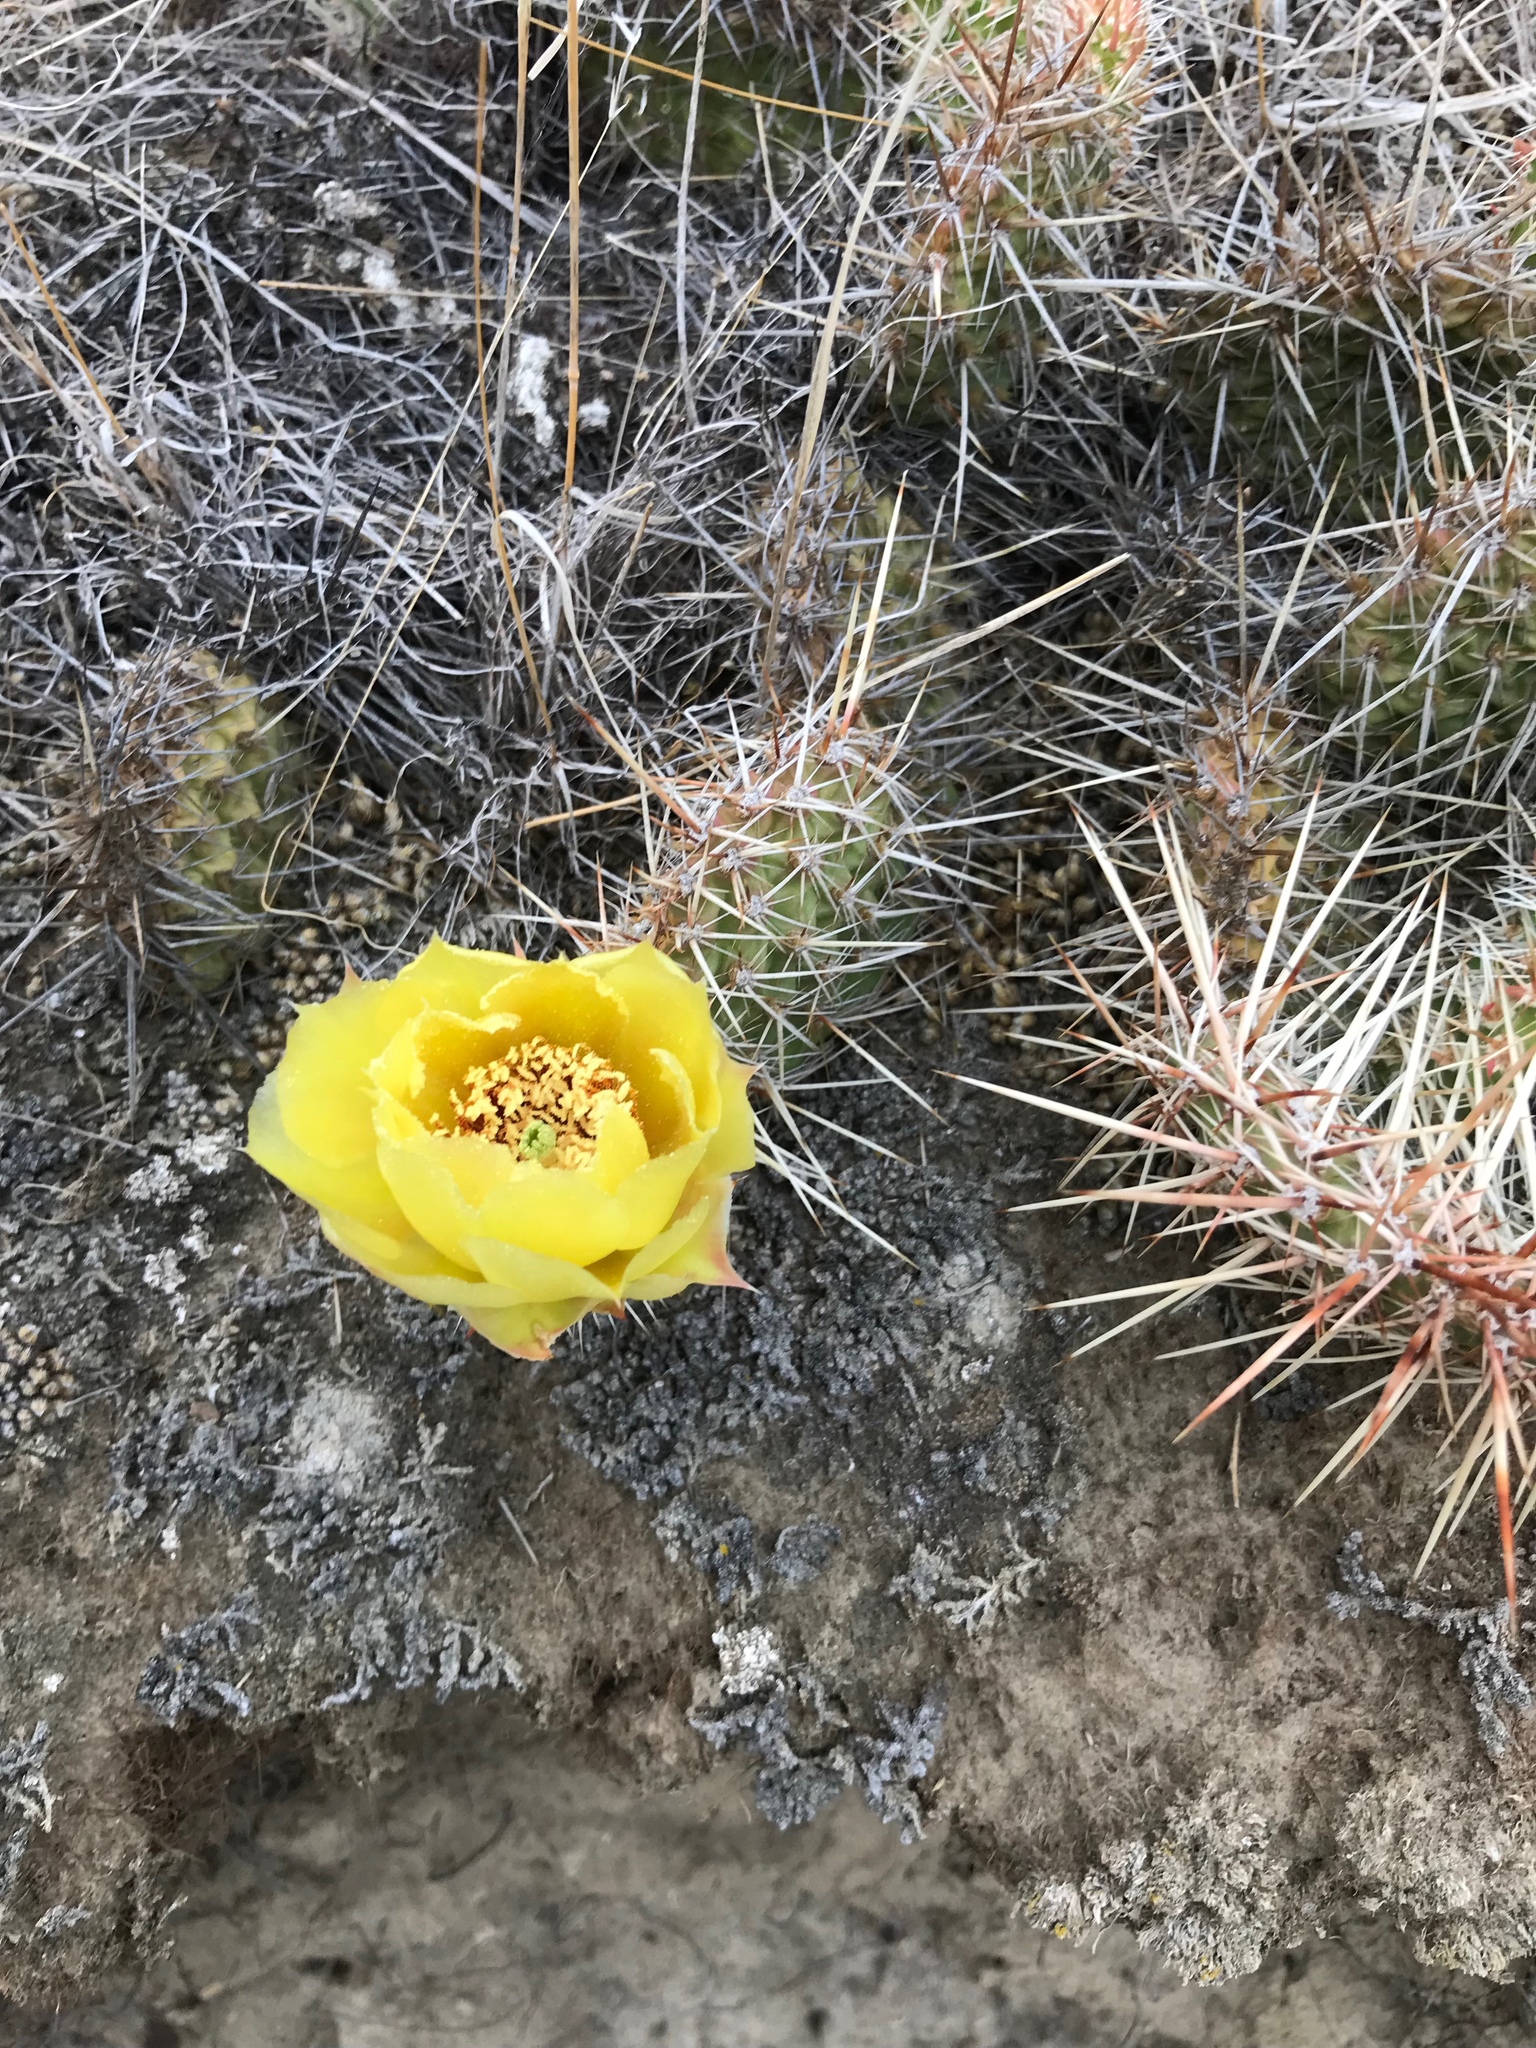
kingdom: Plantae
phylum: Tracheophyta
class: Magnoliopsida
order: Caryophyllales
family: Cactaceae
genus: Opuntia
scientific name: Opuntia polyacantha
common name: Plains prickly-pear
